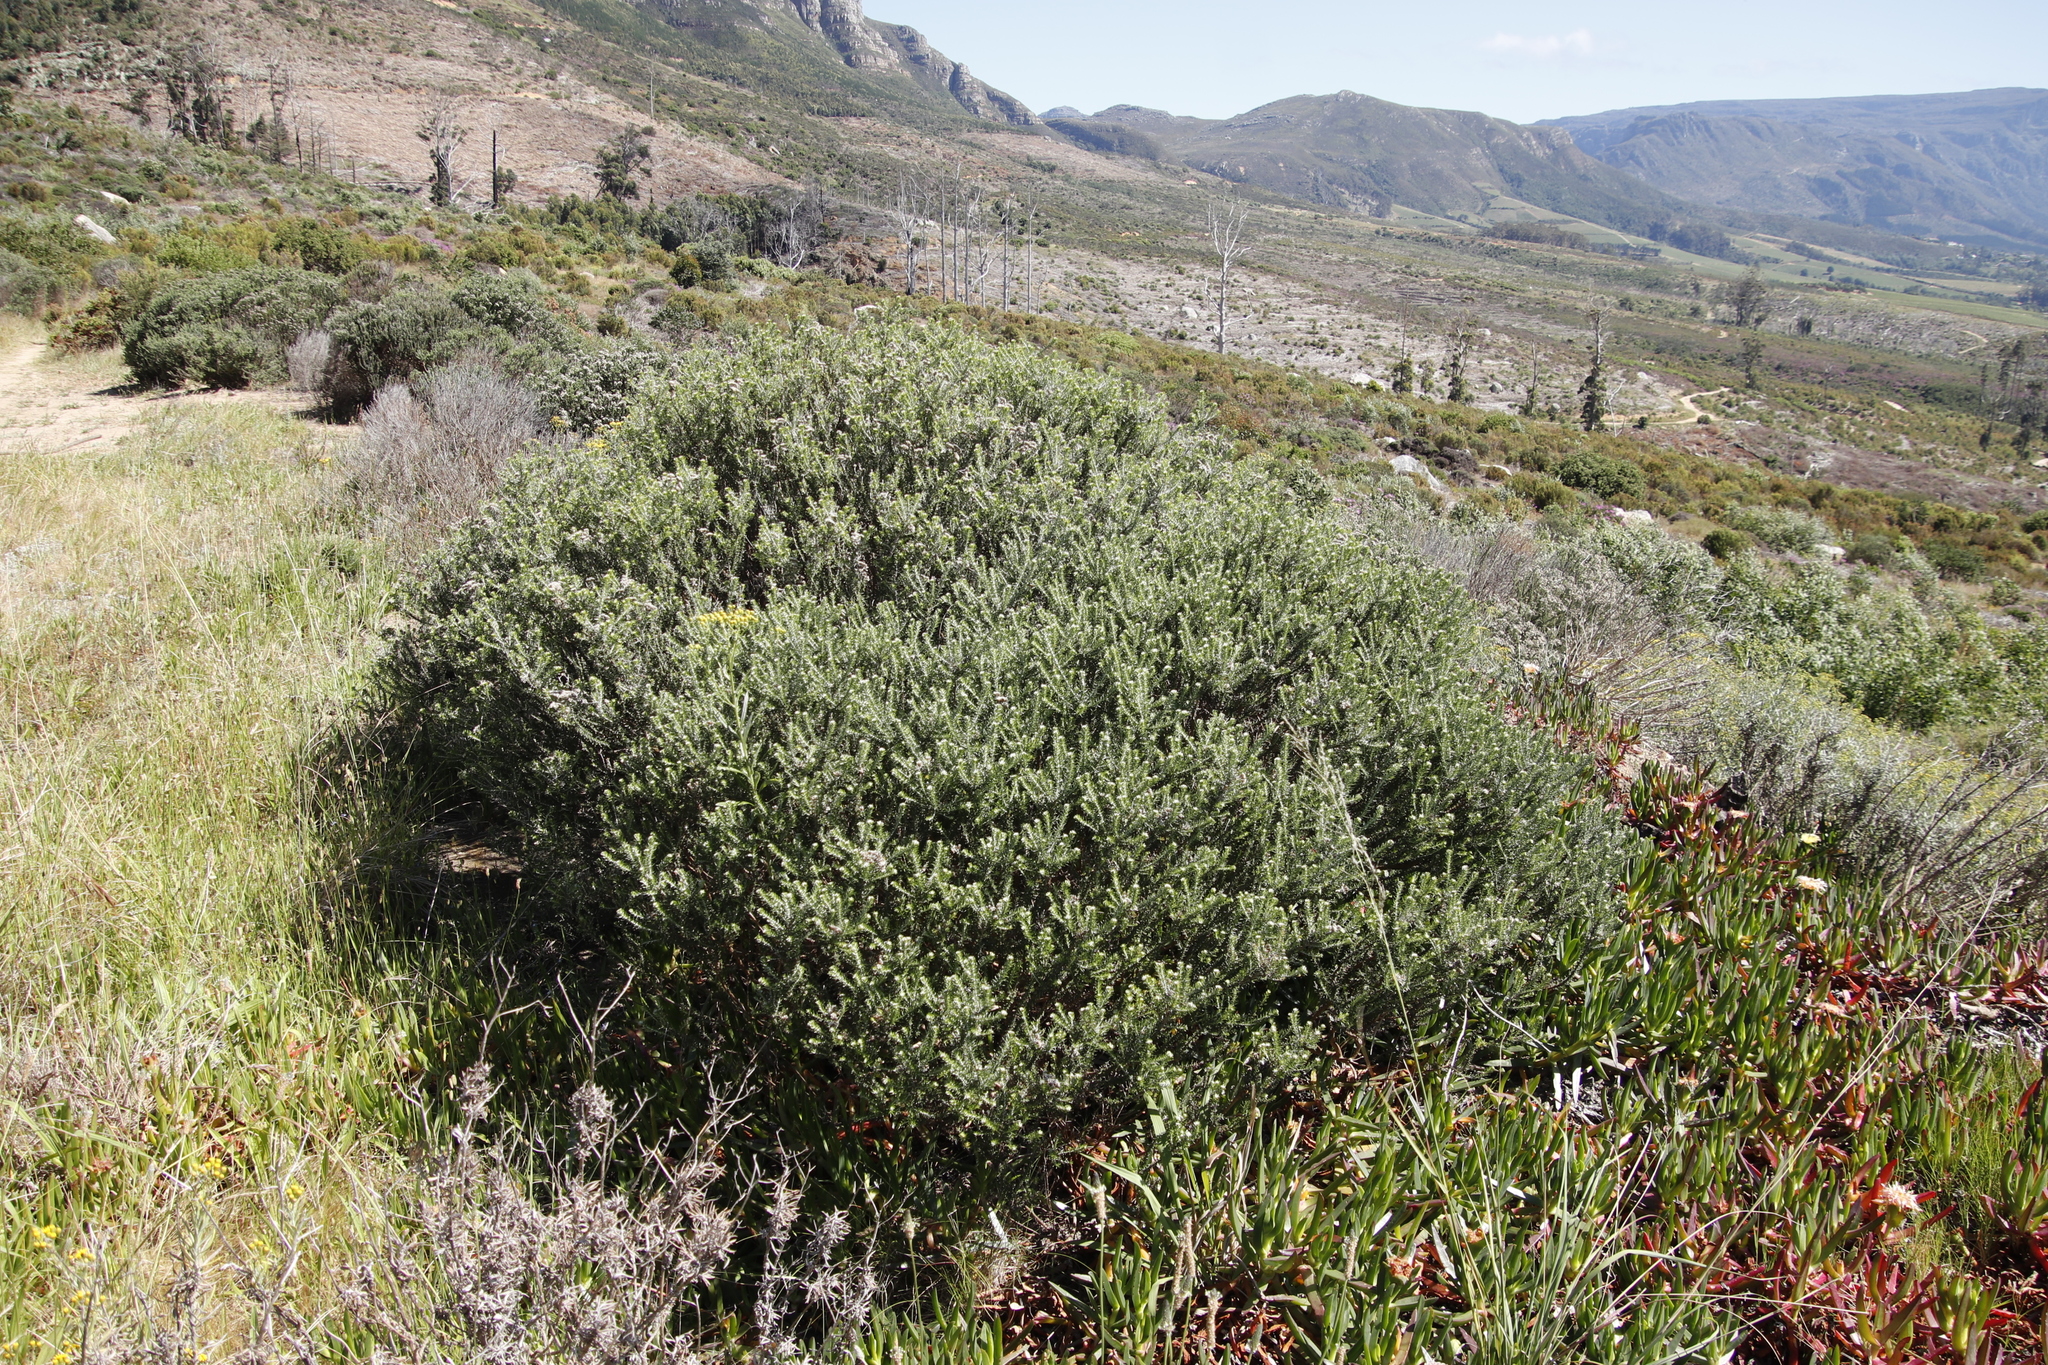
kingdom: Plantae
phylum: Tracheophyta
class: Magnoliopsida
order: Asterales
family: Asteraceae
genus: Senecio
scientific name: Senecio pterophorus
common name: Shoddy ragwort
